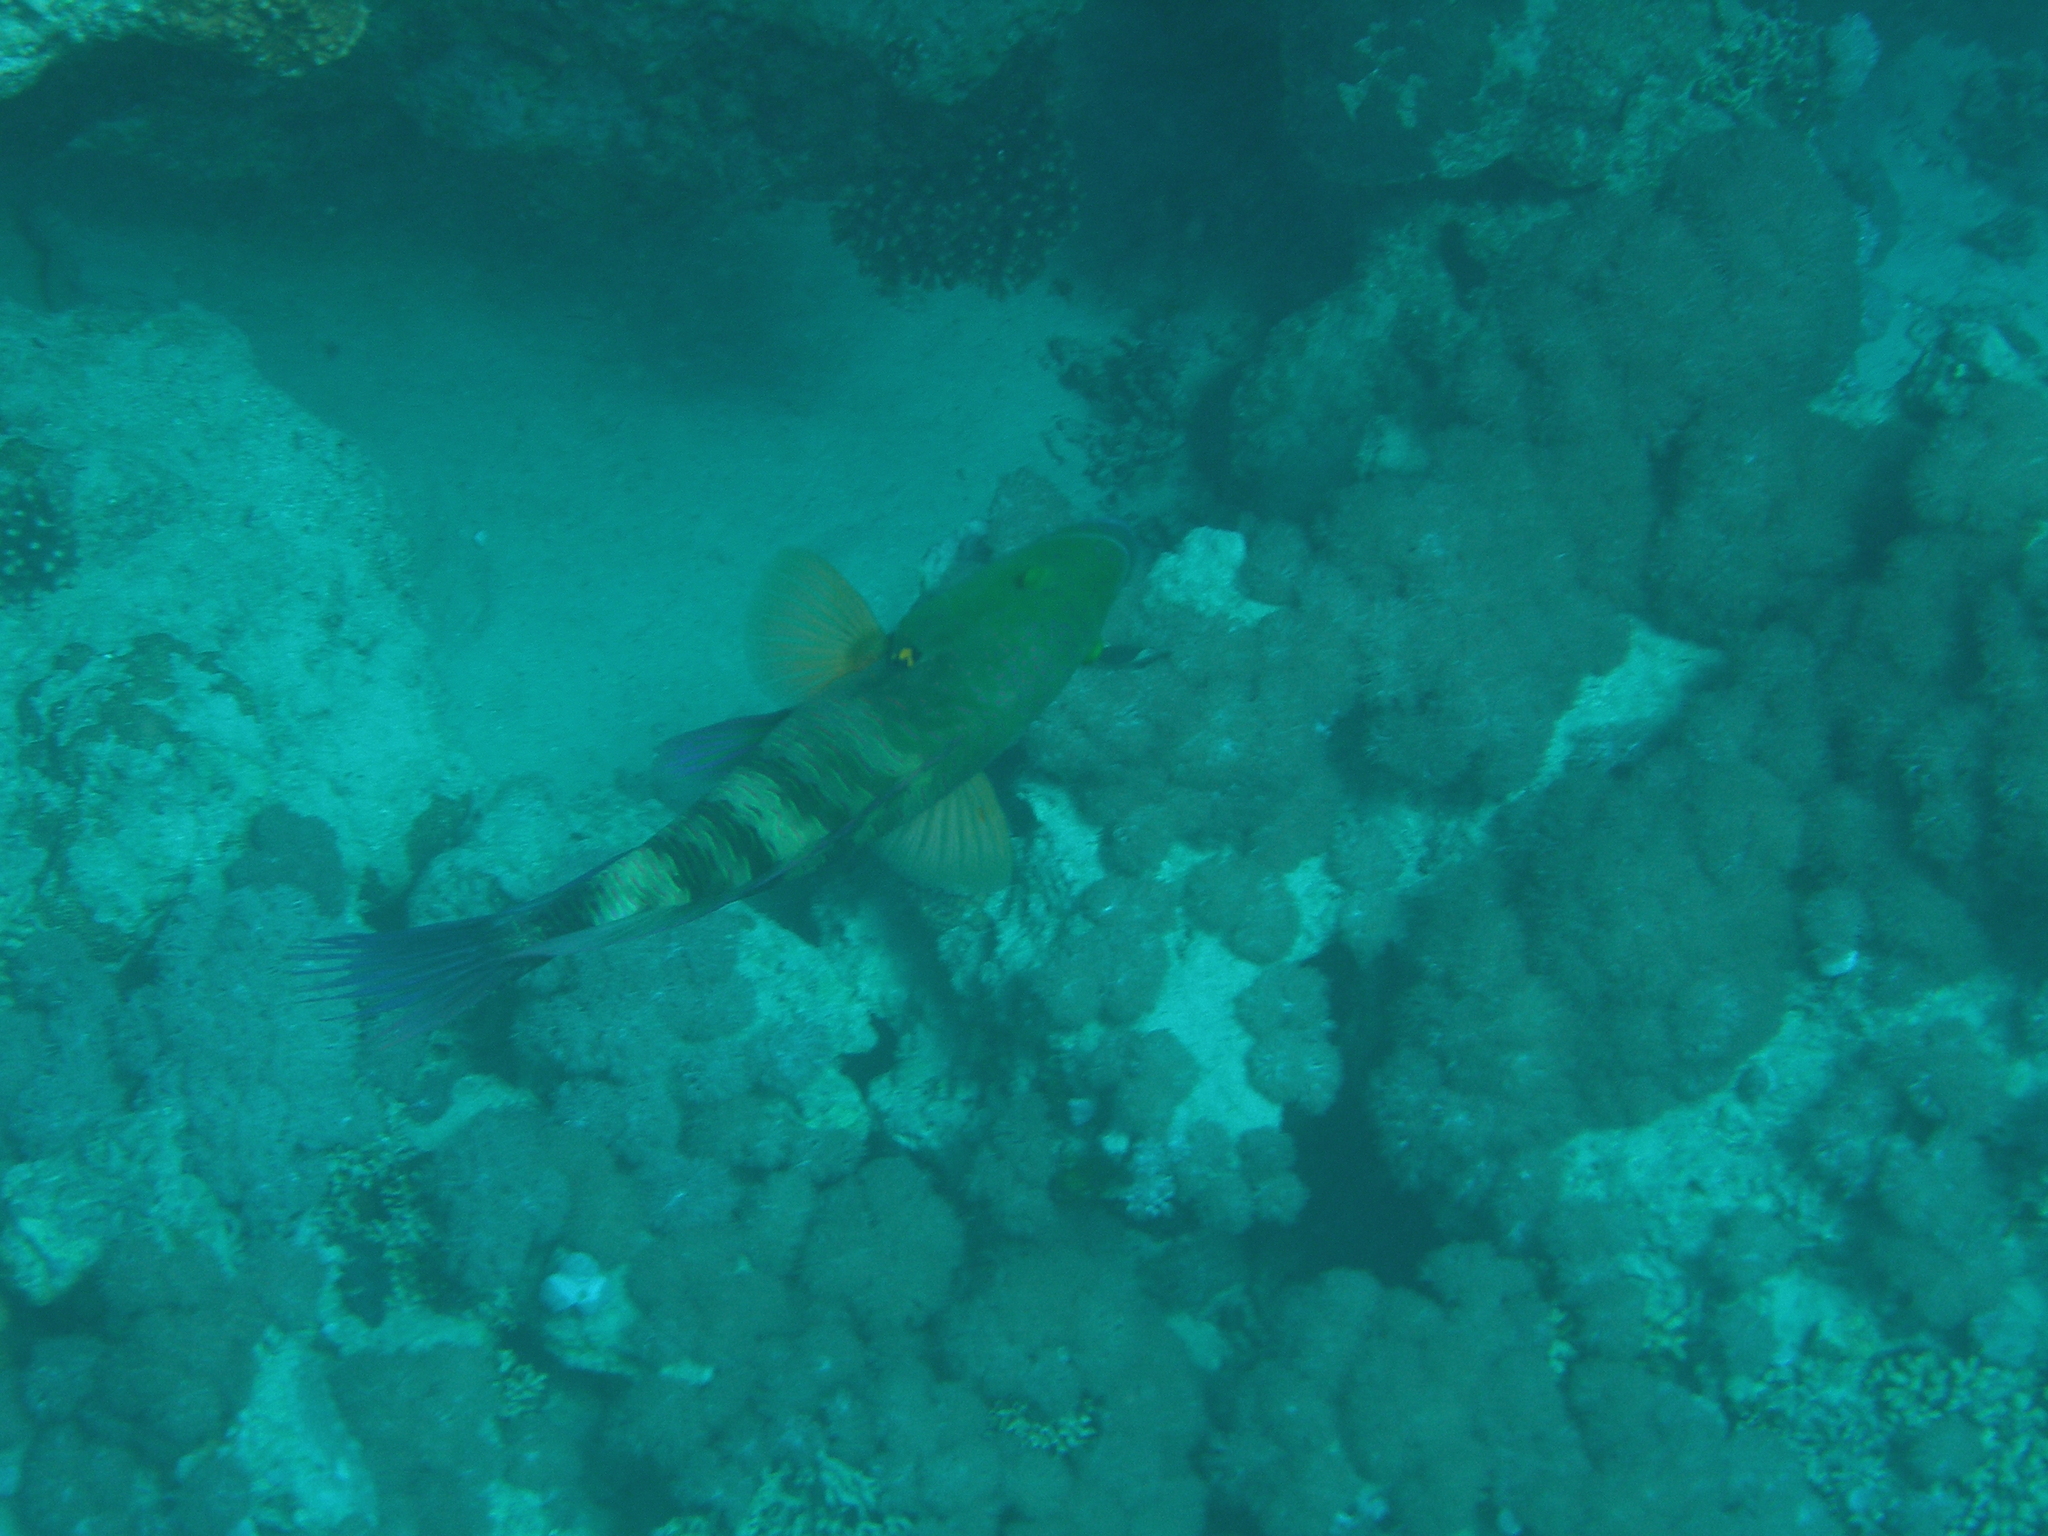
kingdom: Animalia
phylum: Chordata
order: Perciformes
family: Labridae
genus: Cheilinus
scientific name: Cheilinus lunulatus
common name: Broomtail wrasse
